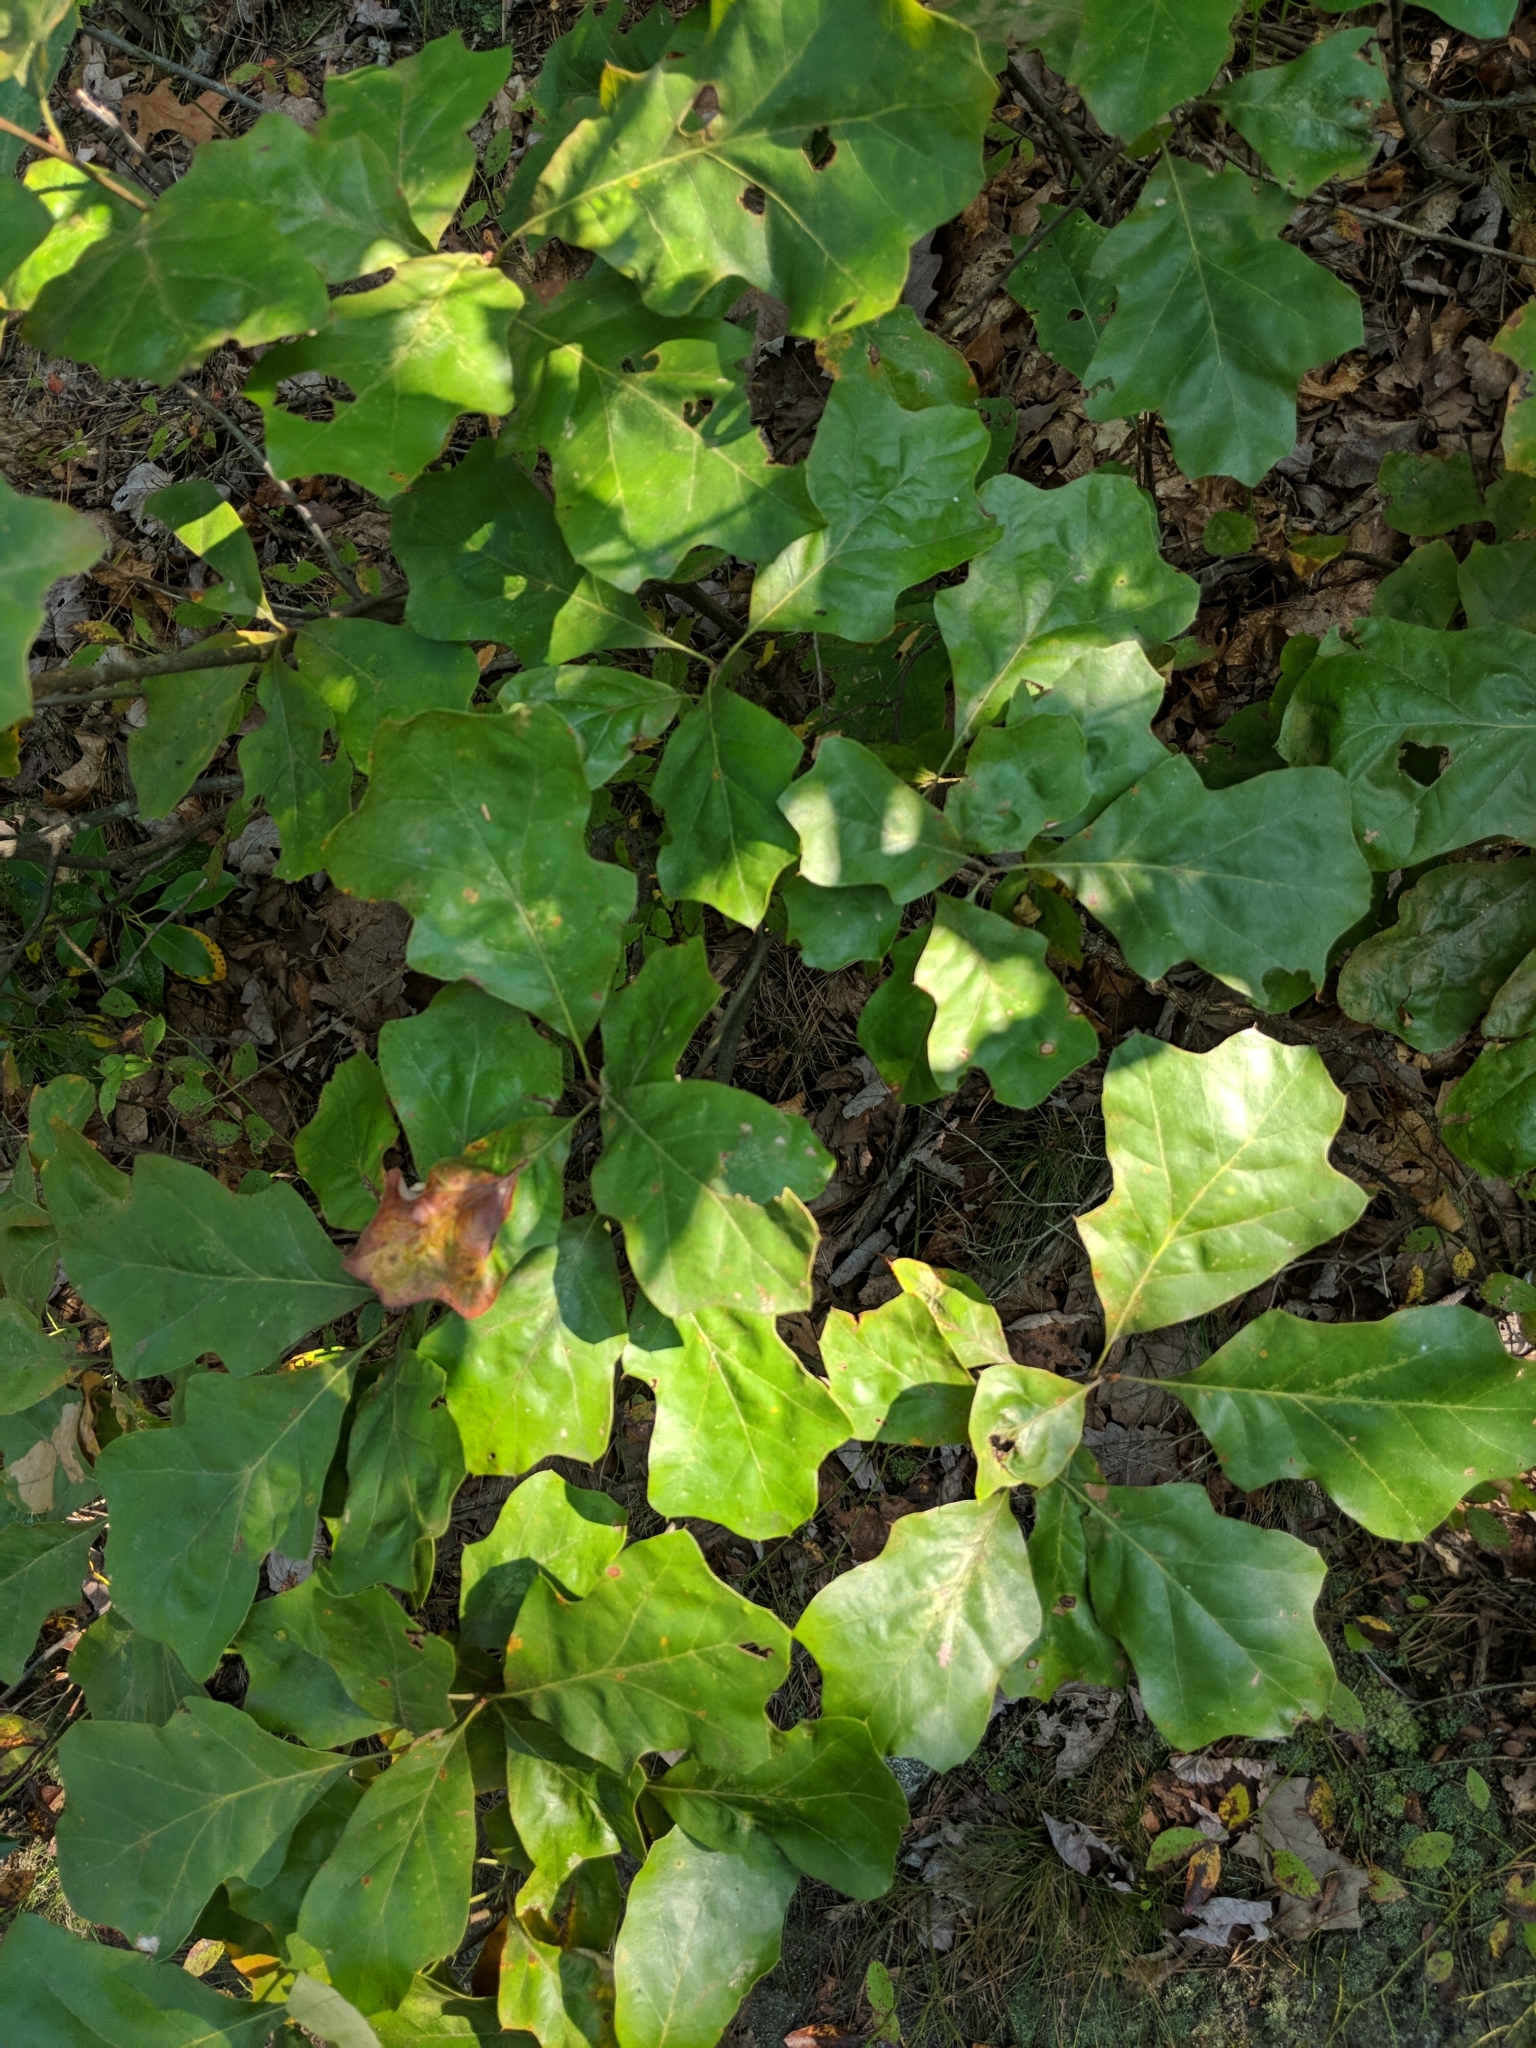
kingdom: Plantae
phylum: Tracheophyta
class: Magnoliopsida
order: Fagales
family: Fagaceae
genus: Quercus
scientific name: Quercus ilicifolia
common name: Bear oak
